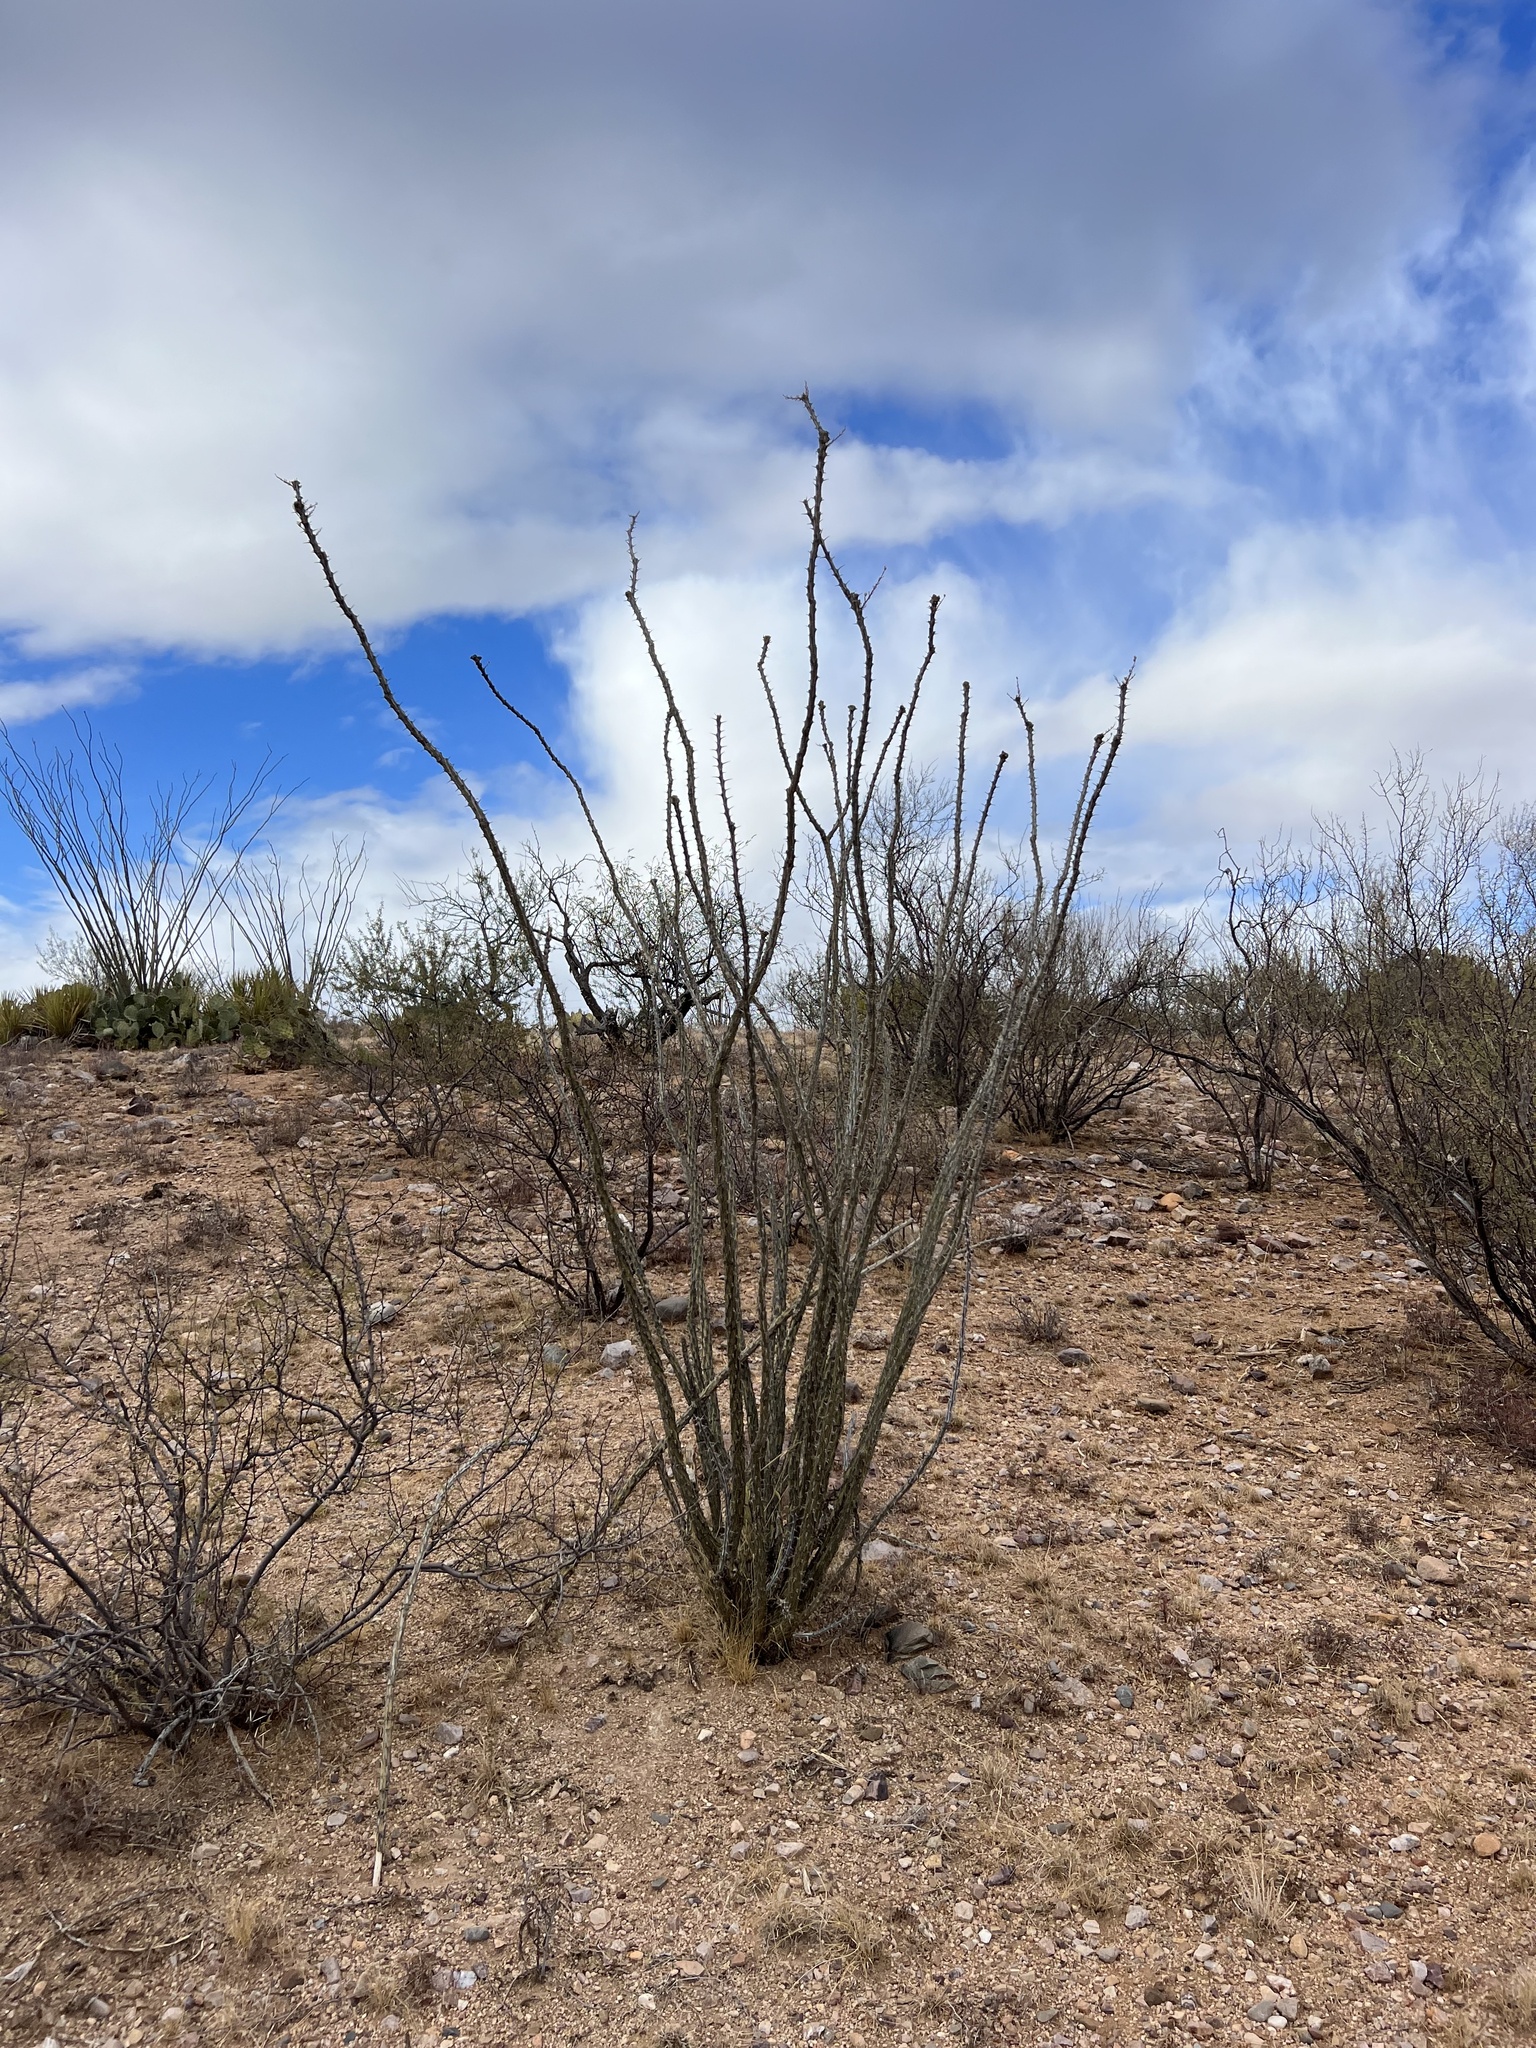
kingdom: Plantae
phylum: Tracheophyta
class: Magnoliopsida
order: Ericales
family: Fouquieriaceae
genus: Fouquieria
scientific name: Fouquieria splendens
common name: Vine-cactus
